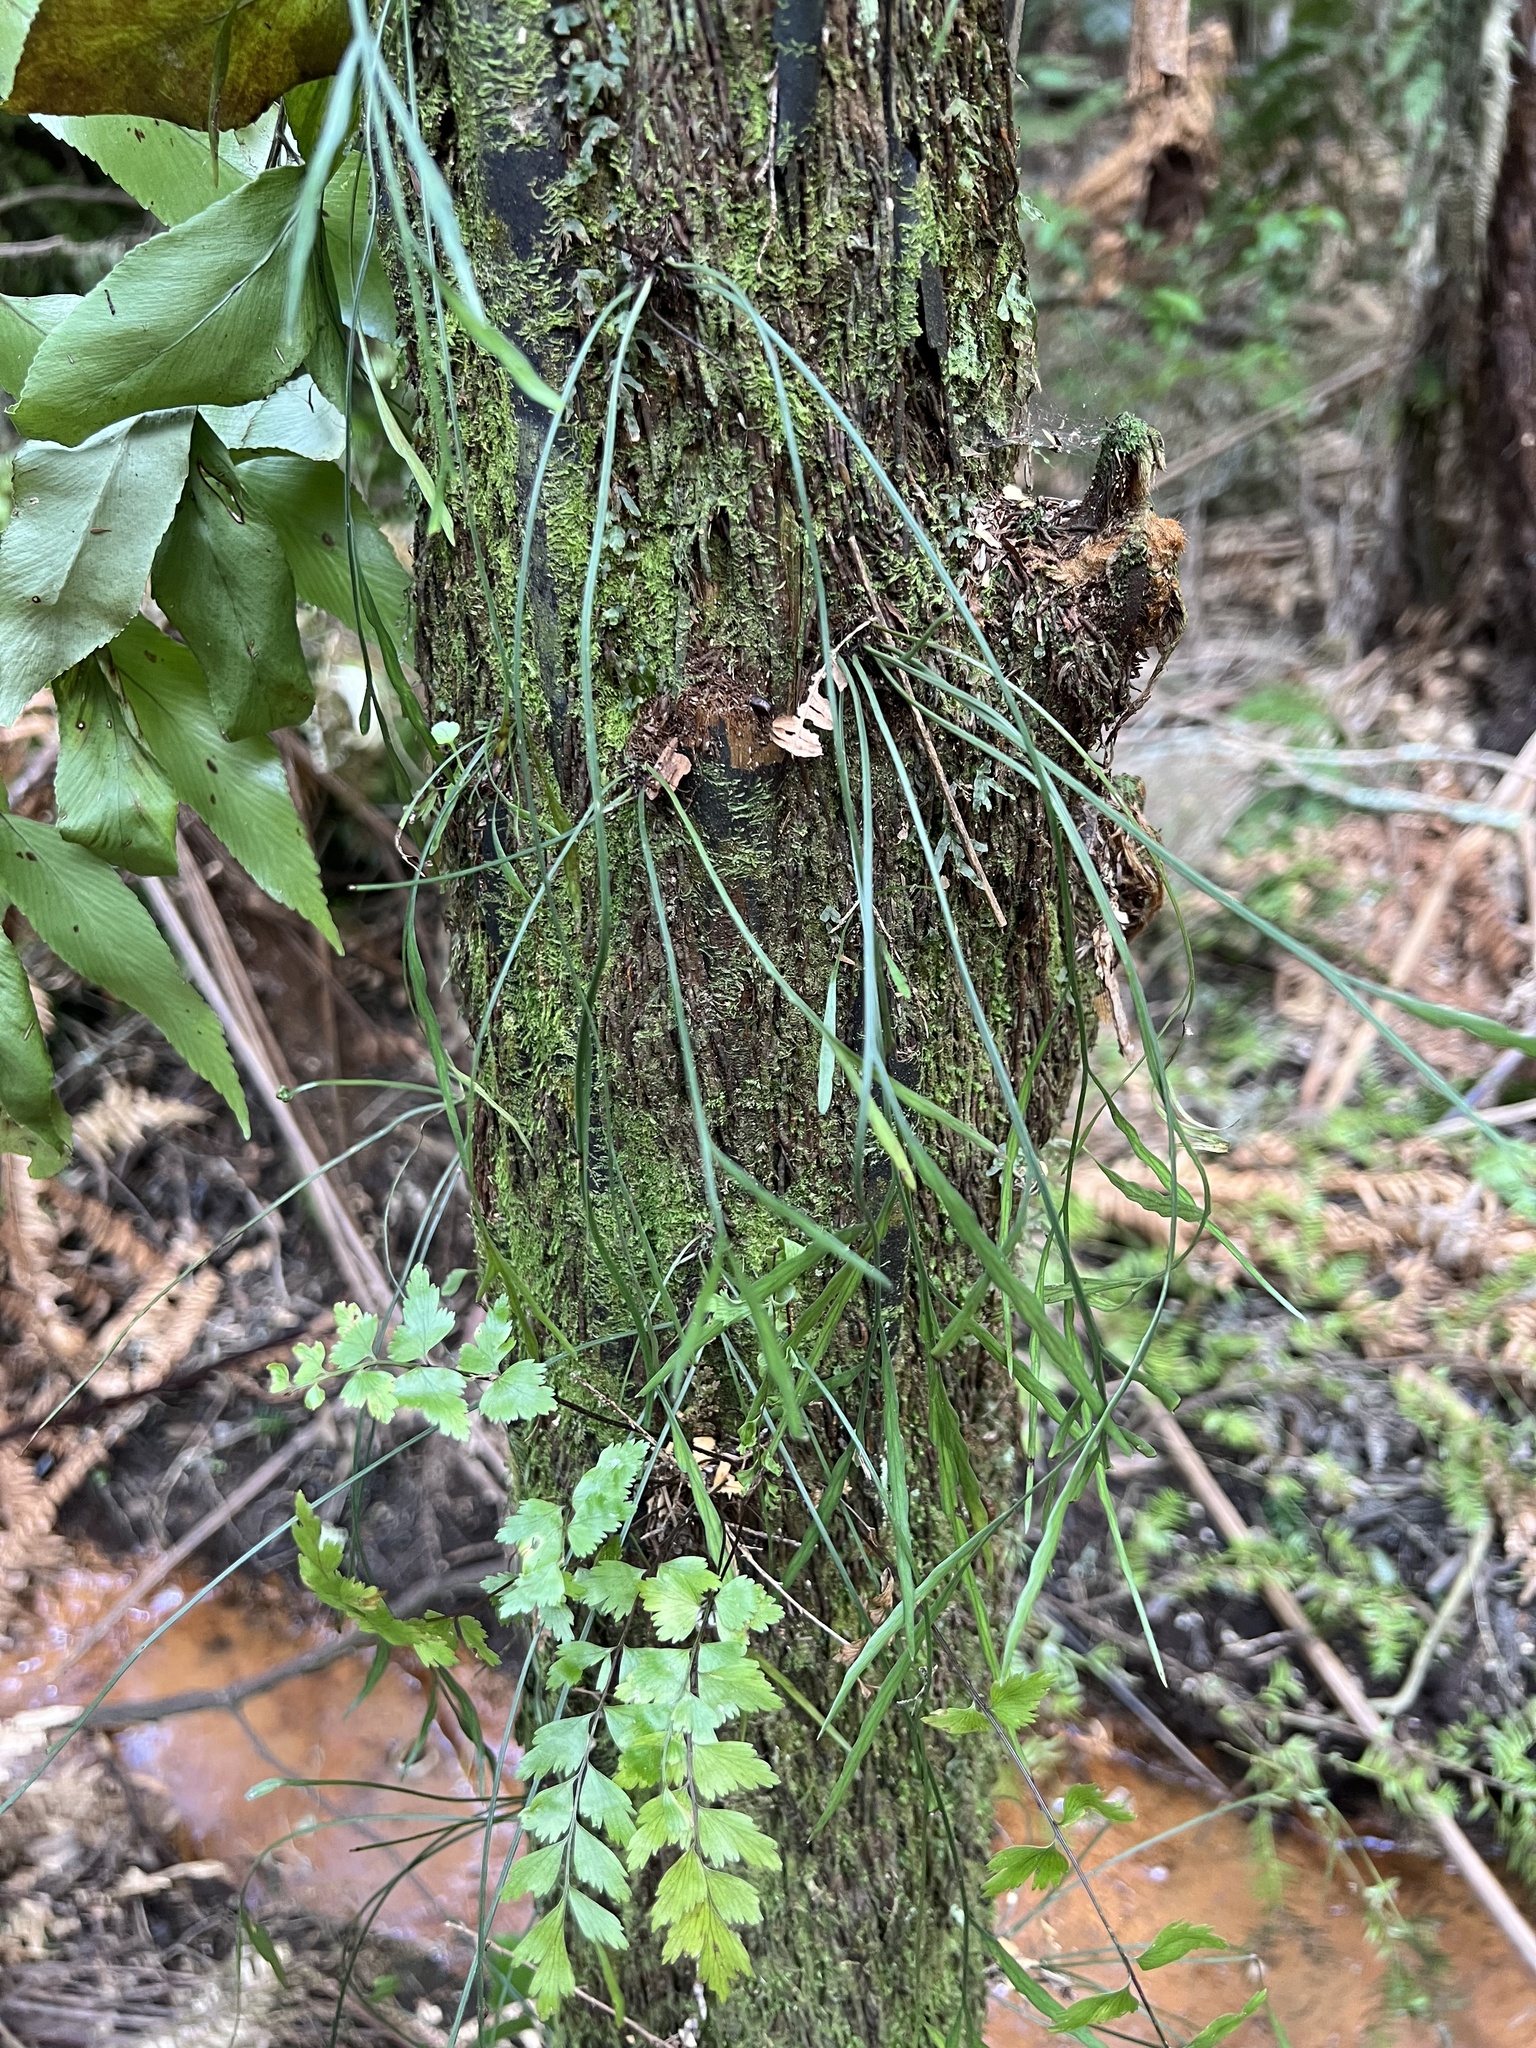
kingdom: Plantae
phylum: Tracheophyta
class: Polypodiopsida
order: Polypodiales
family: Aspleniaceae
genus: Asplenium
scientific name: Asplenium flaccidum
